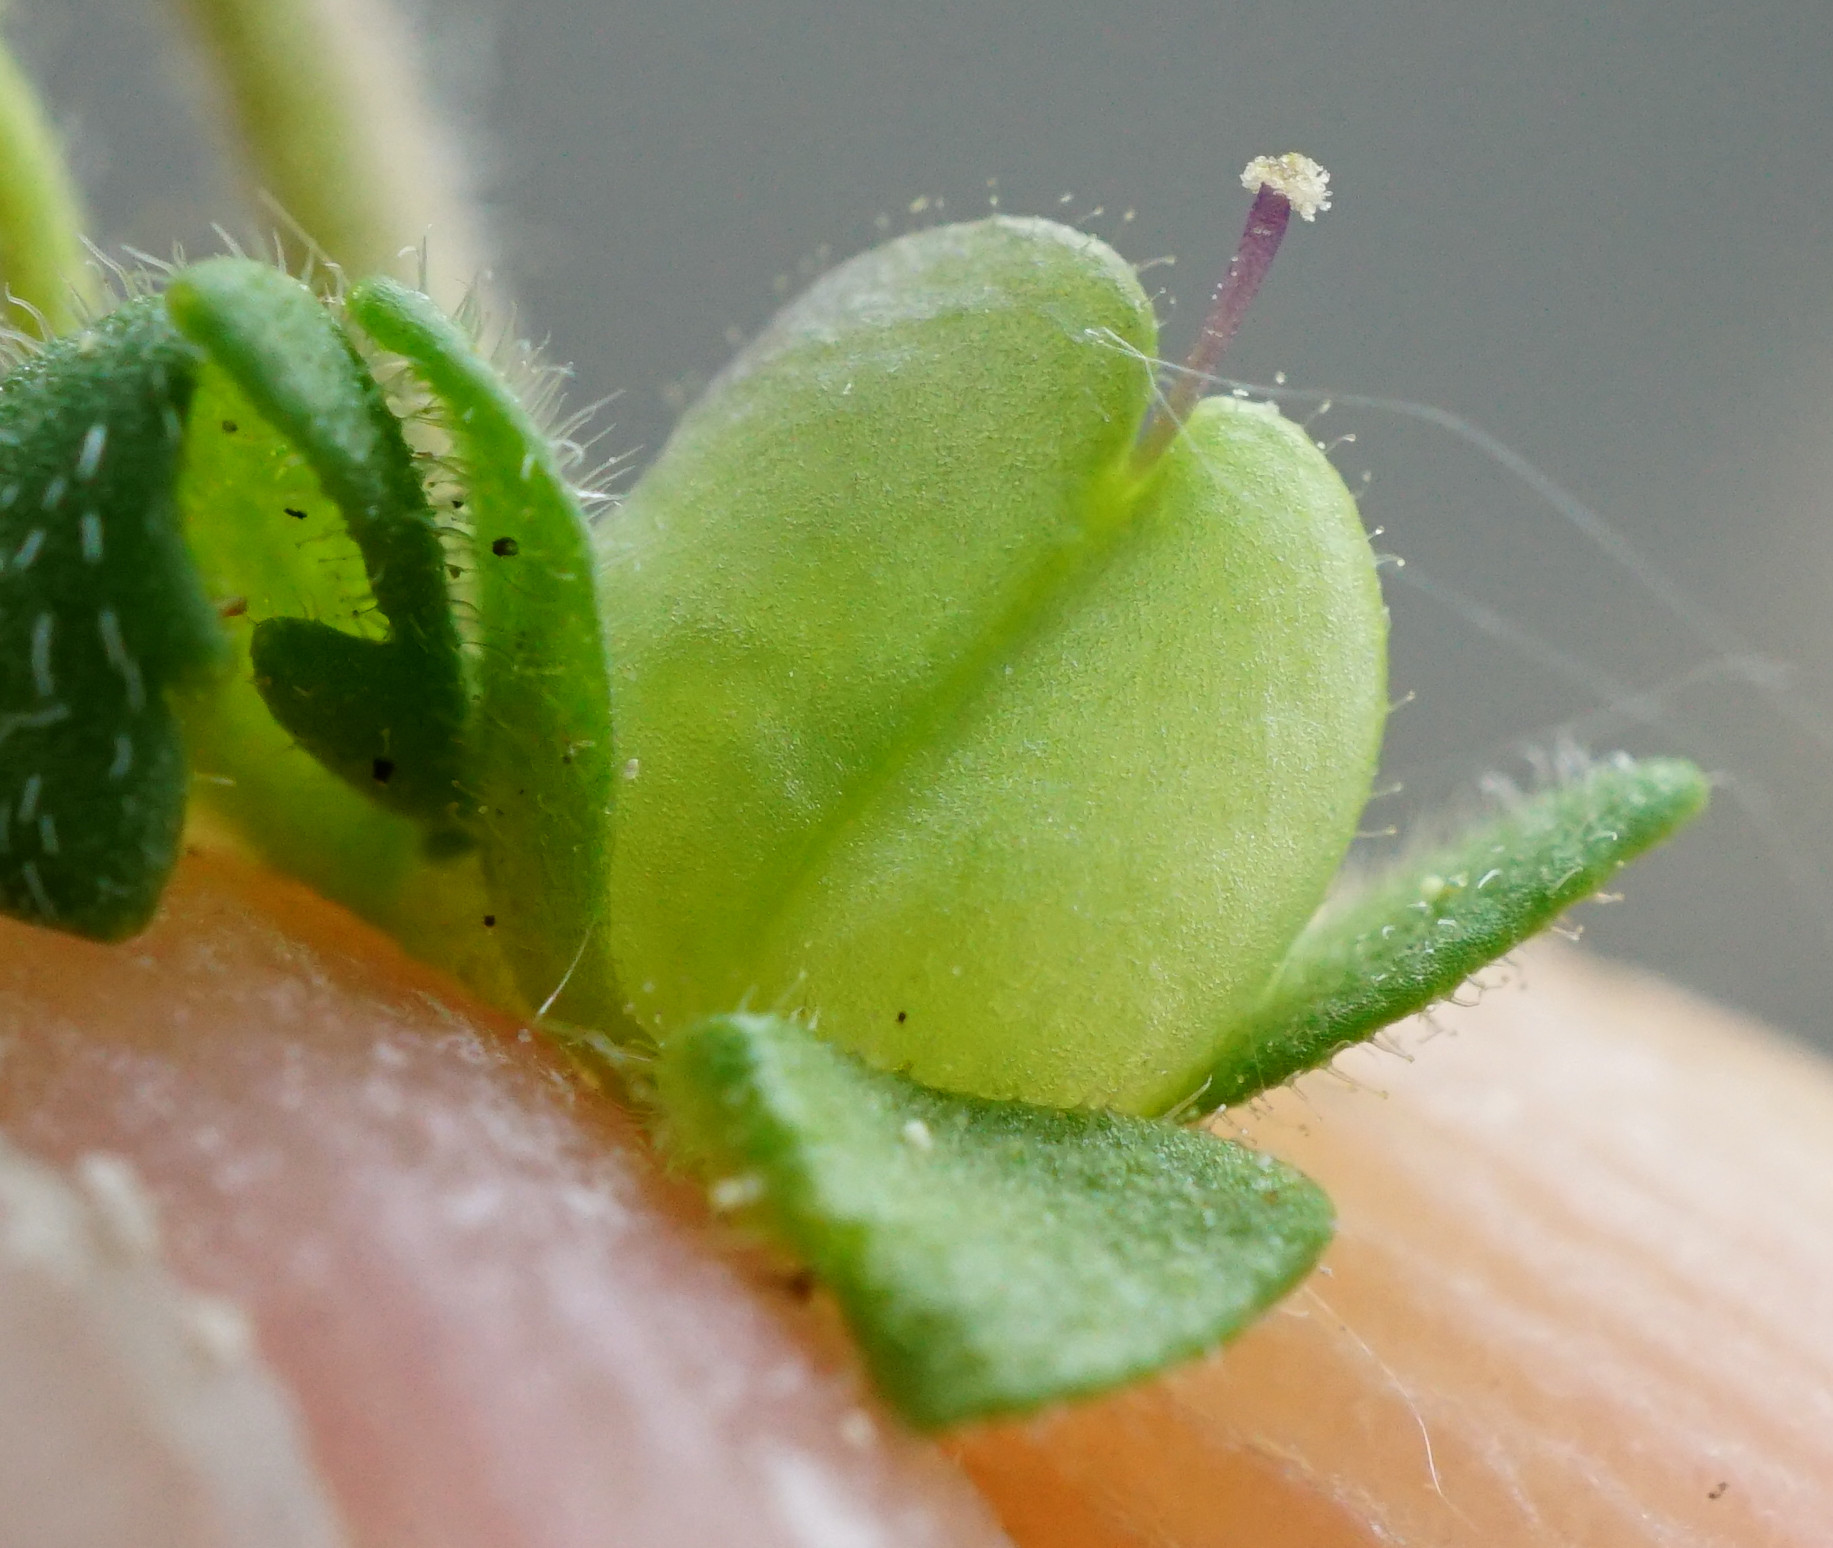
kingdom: Plantae
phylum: Tracheophyta
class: Magnoliopsida
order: Lamiales
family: Plantaginaceae
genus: Veronica
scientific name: Veronica praecox
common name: Breckland speedwell
